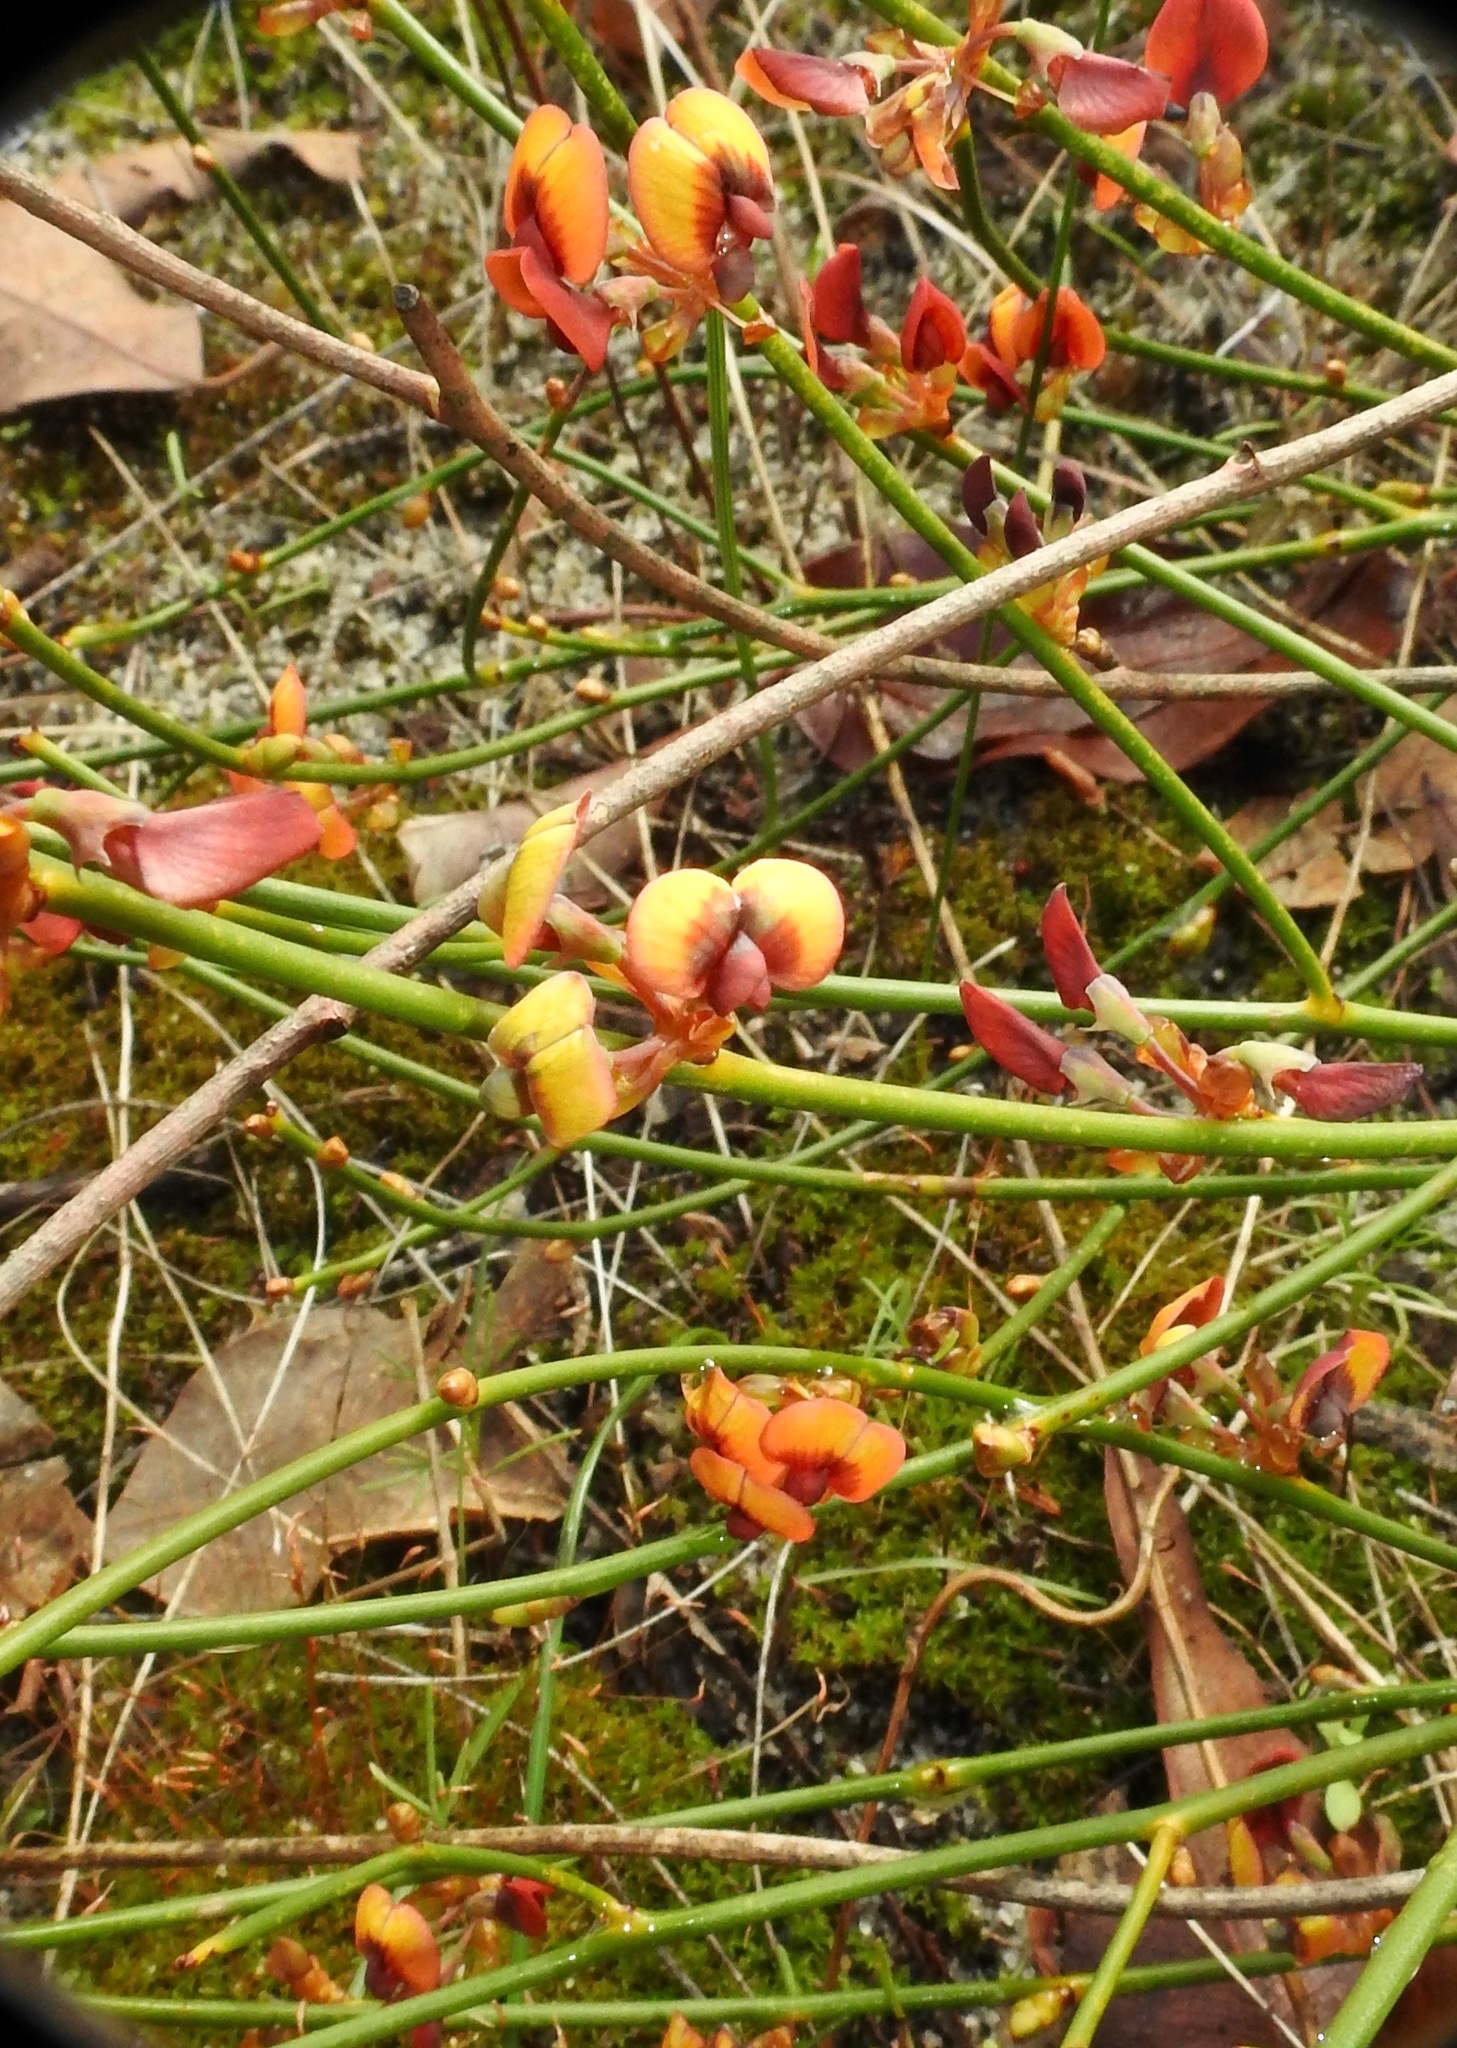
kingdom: Plantae
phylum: Tracheophyta
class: Magnoliopsida
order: Fabales
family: Fabaceae
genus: Daviesia
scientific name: Daviesia triflora
